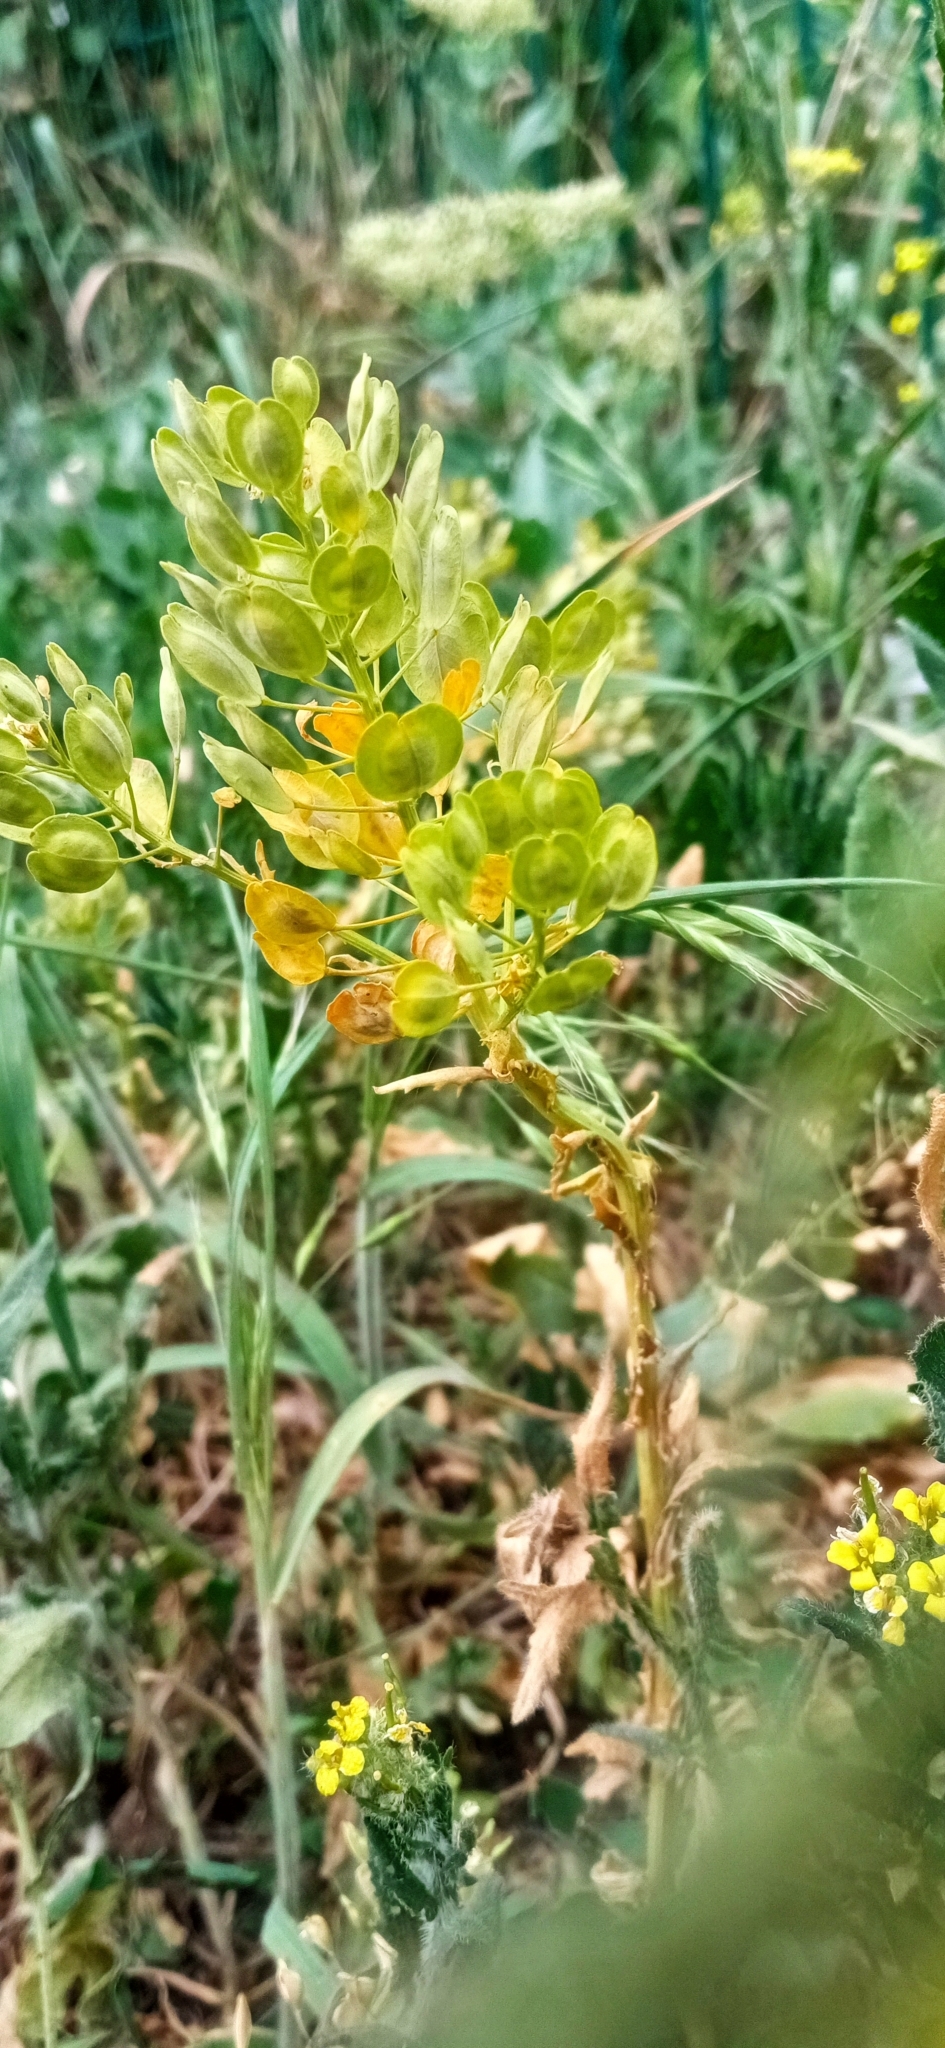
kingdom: Plantae
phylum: Tracheophyta
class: Magnoliopsida
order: Brassicales
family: Brassicaceae
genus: Thlaspi
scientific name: Thlaspi arvense
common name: Field pennycress
